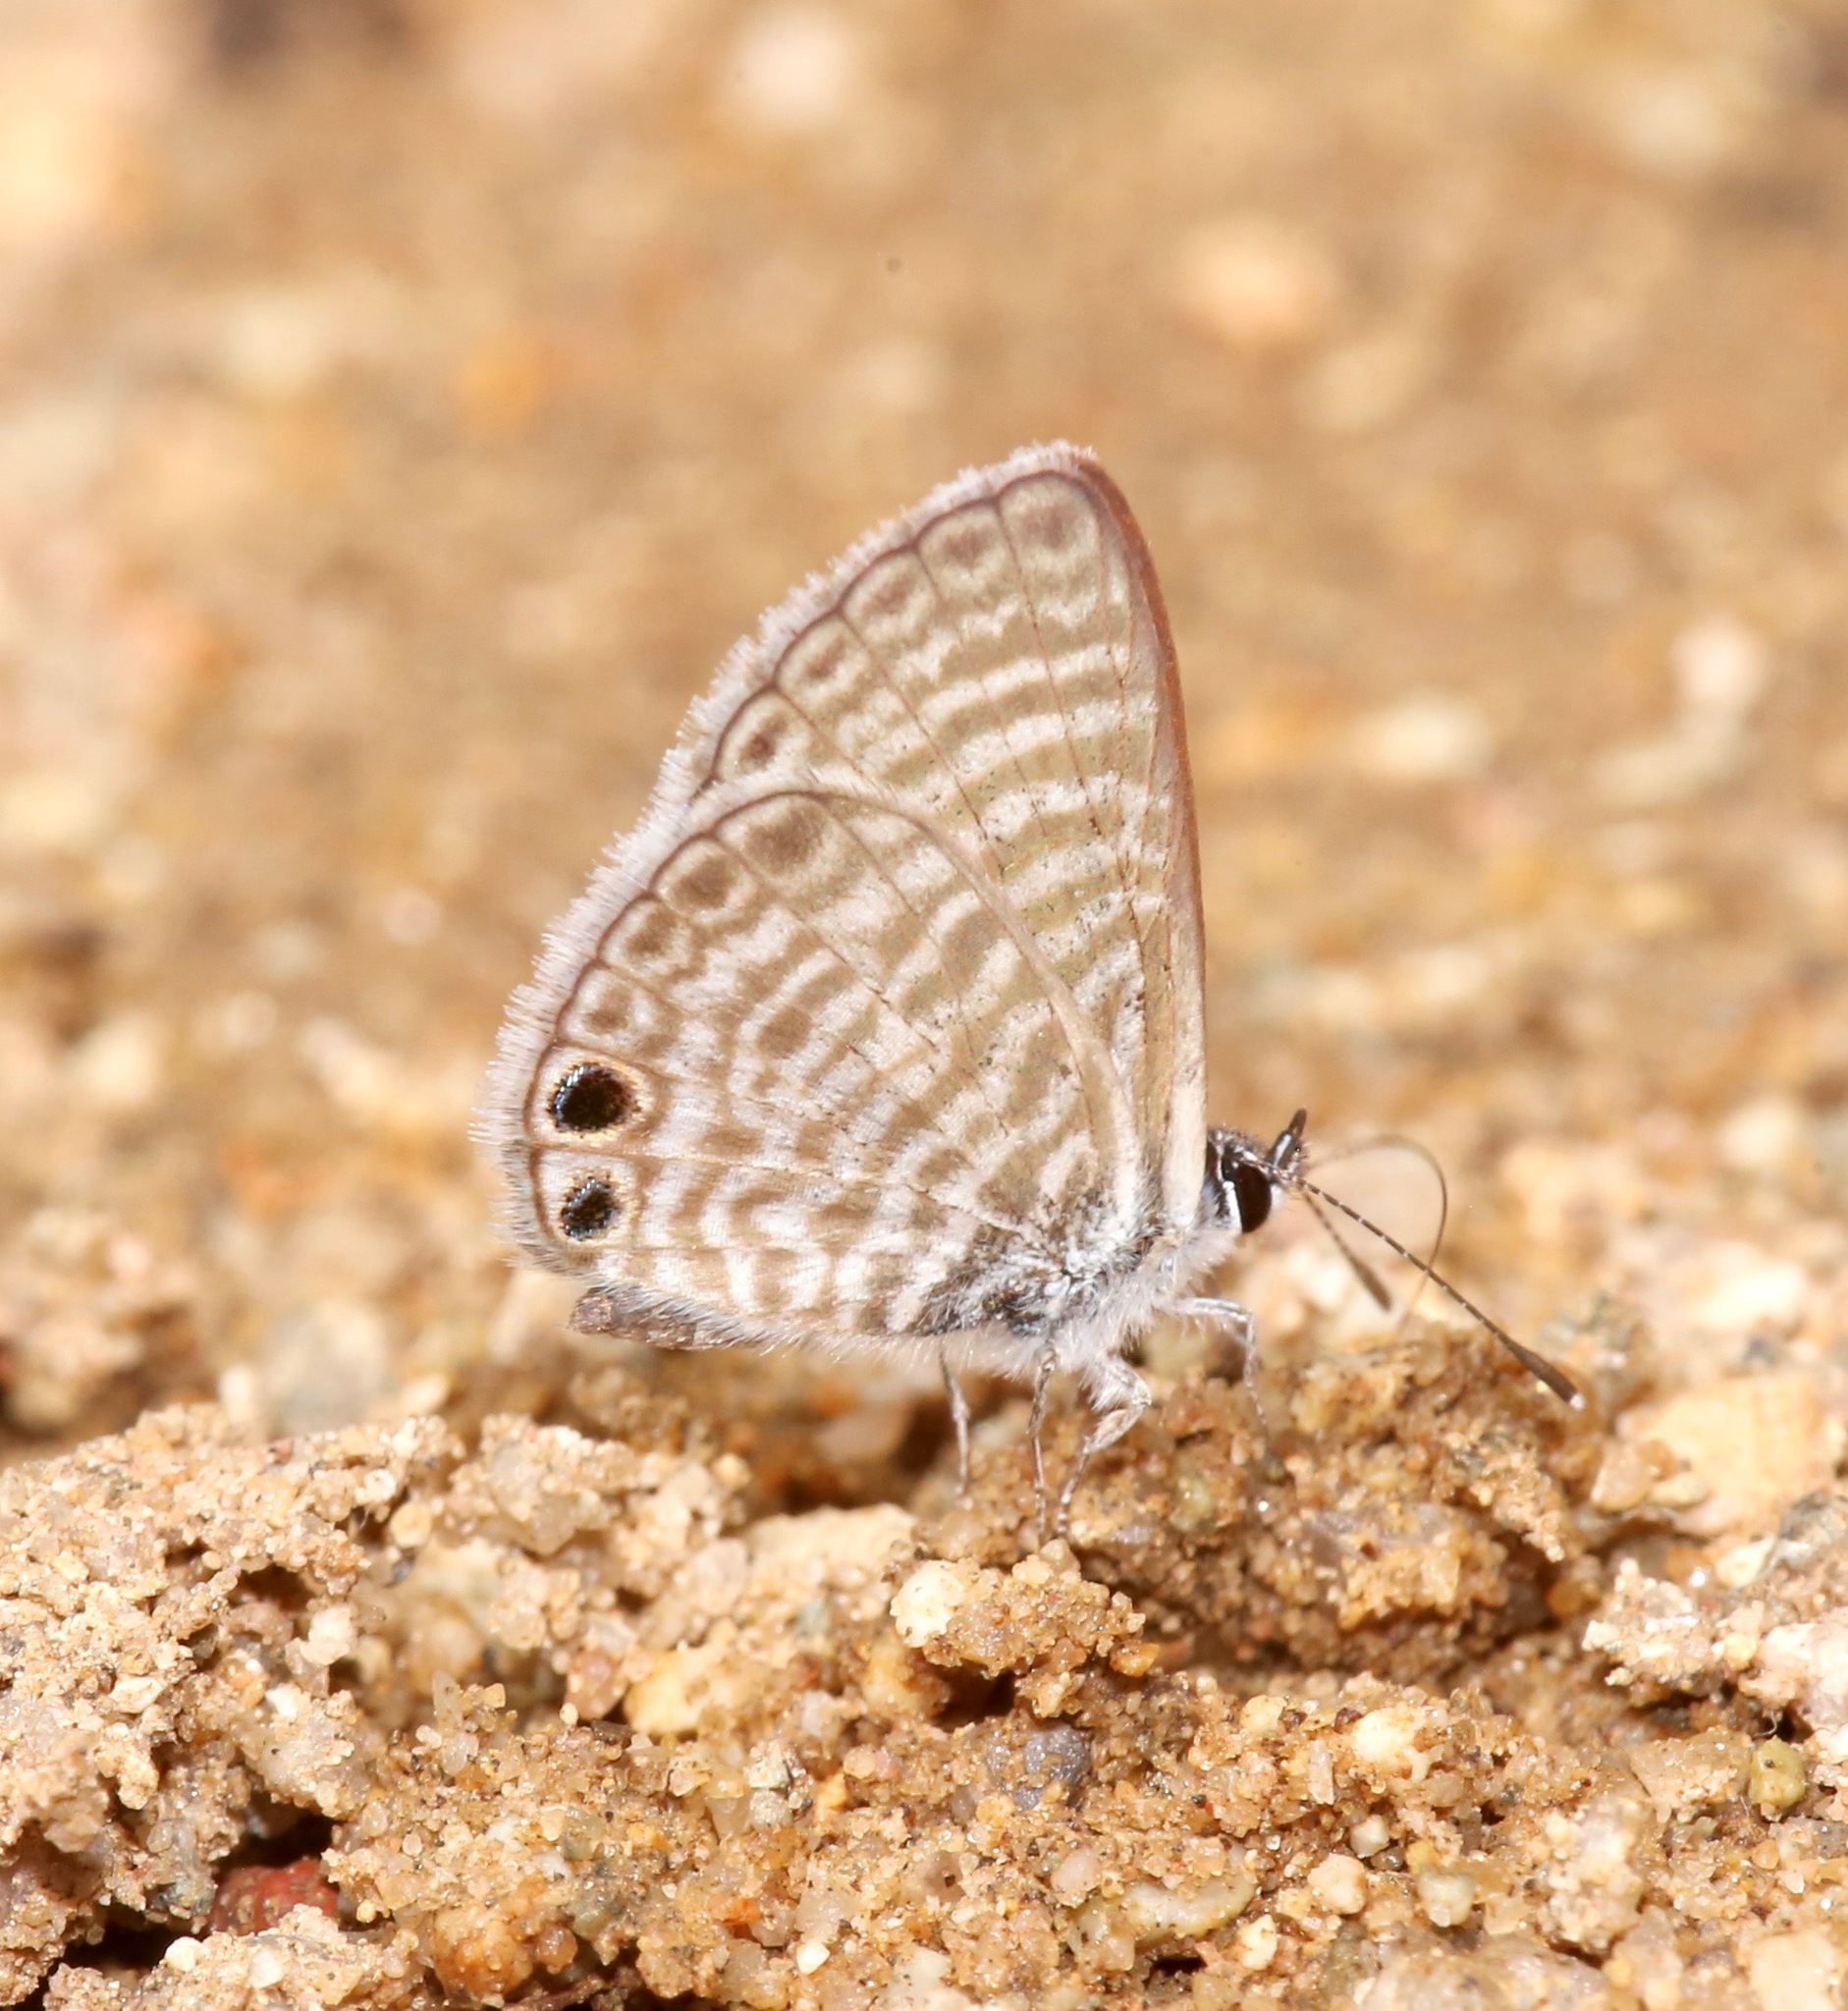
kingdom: Animalia
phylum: Arthropoda
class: Insecta
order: Lepidoptera
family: Lycaenidae
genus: Leptotes
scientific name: Leptotes marina
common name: Marine blue
